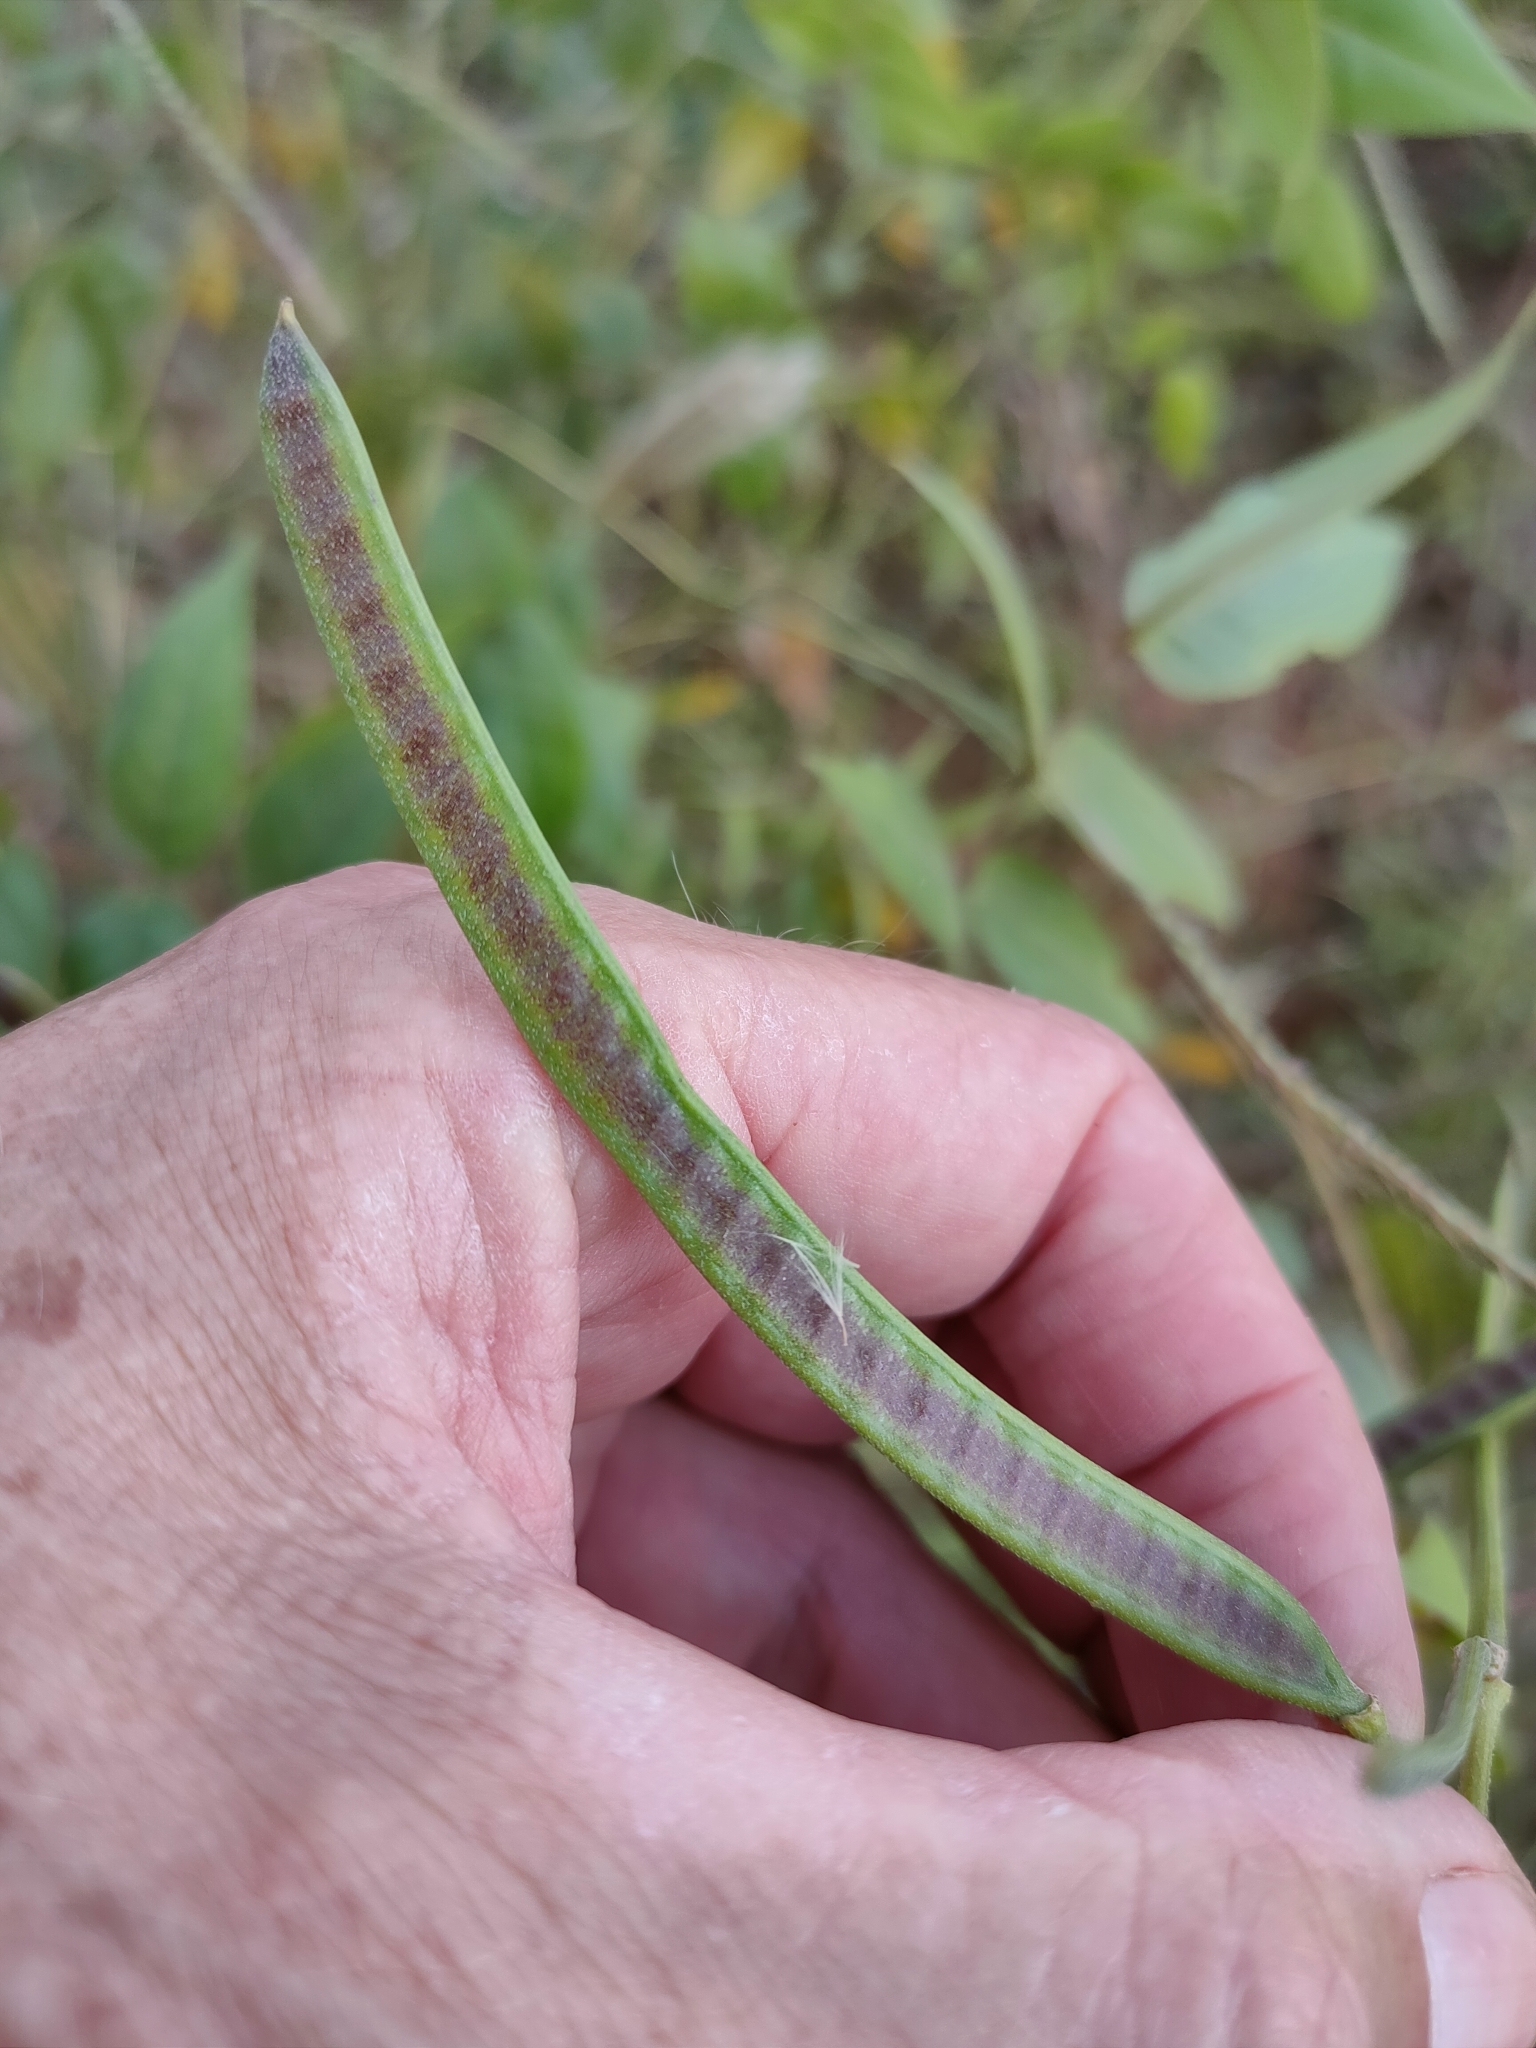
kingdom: Plantae
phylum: Tracheophyta
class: Magnoliopsida
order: Fabales
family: Fabaceae
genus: Senna
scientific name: Senna occidentalis
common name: Septicweed
